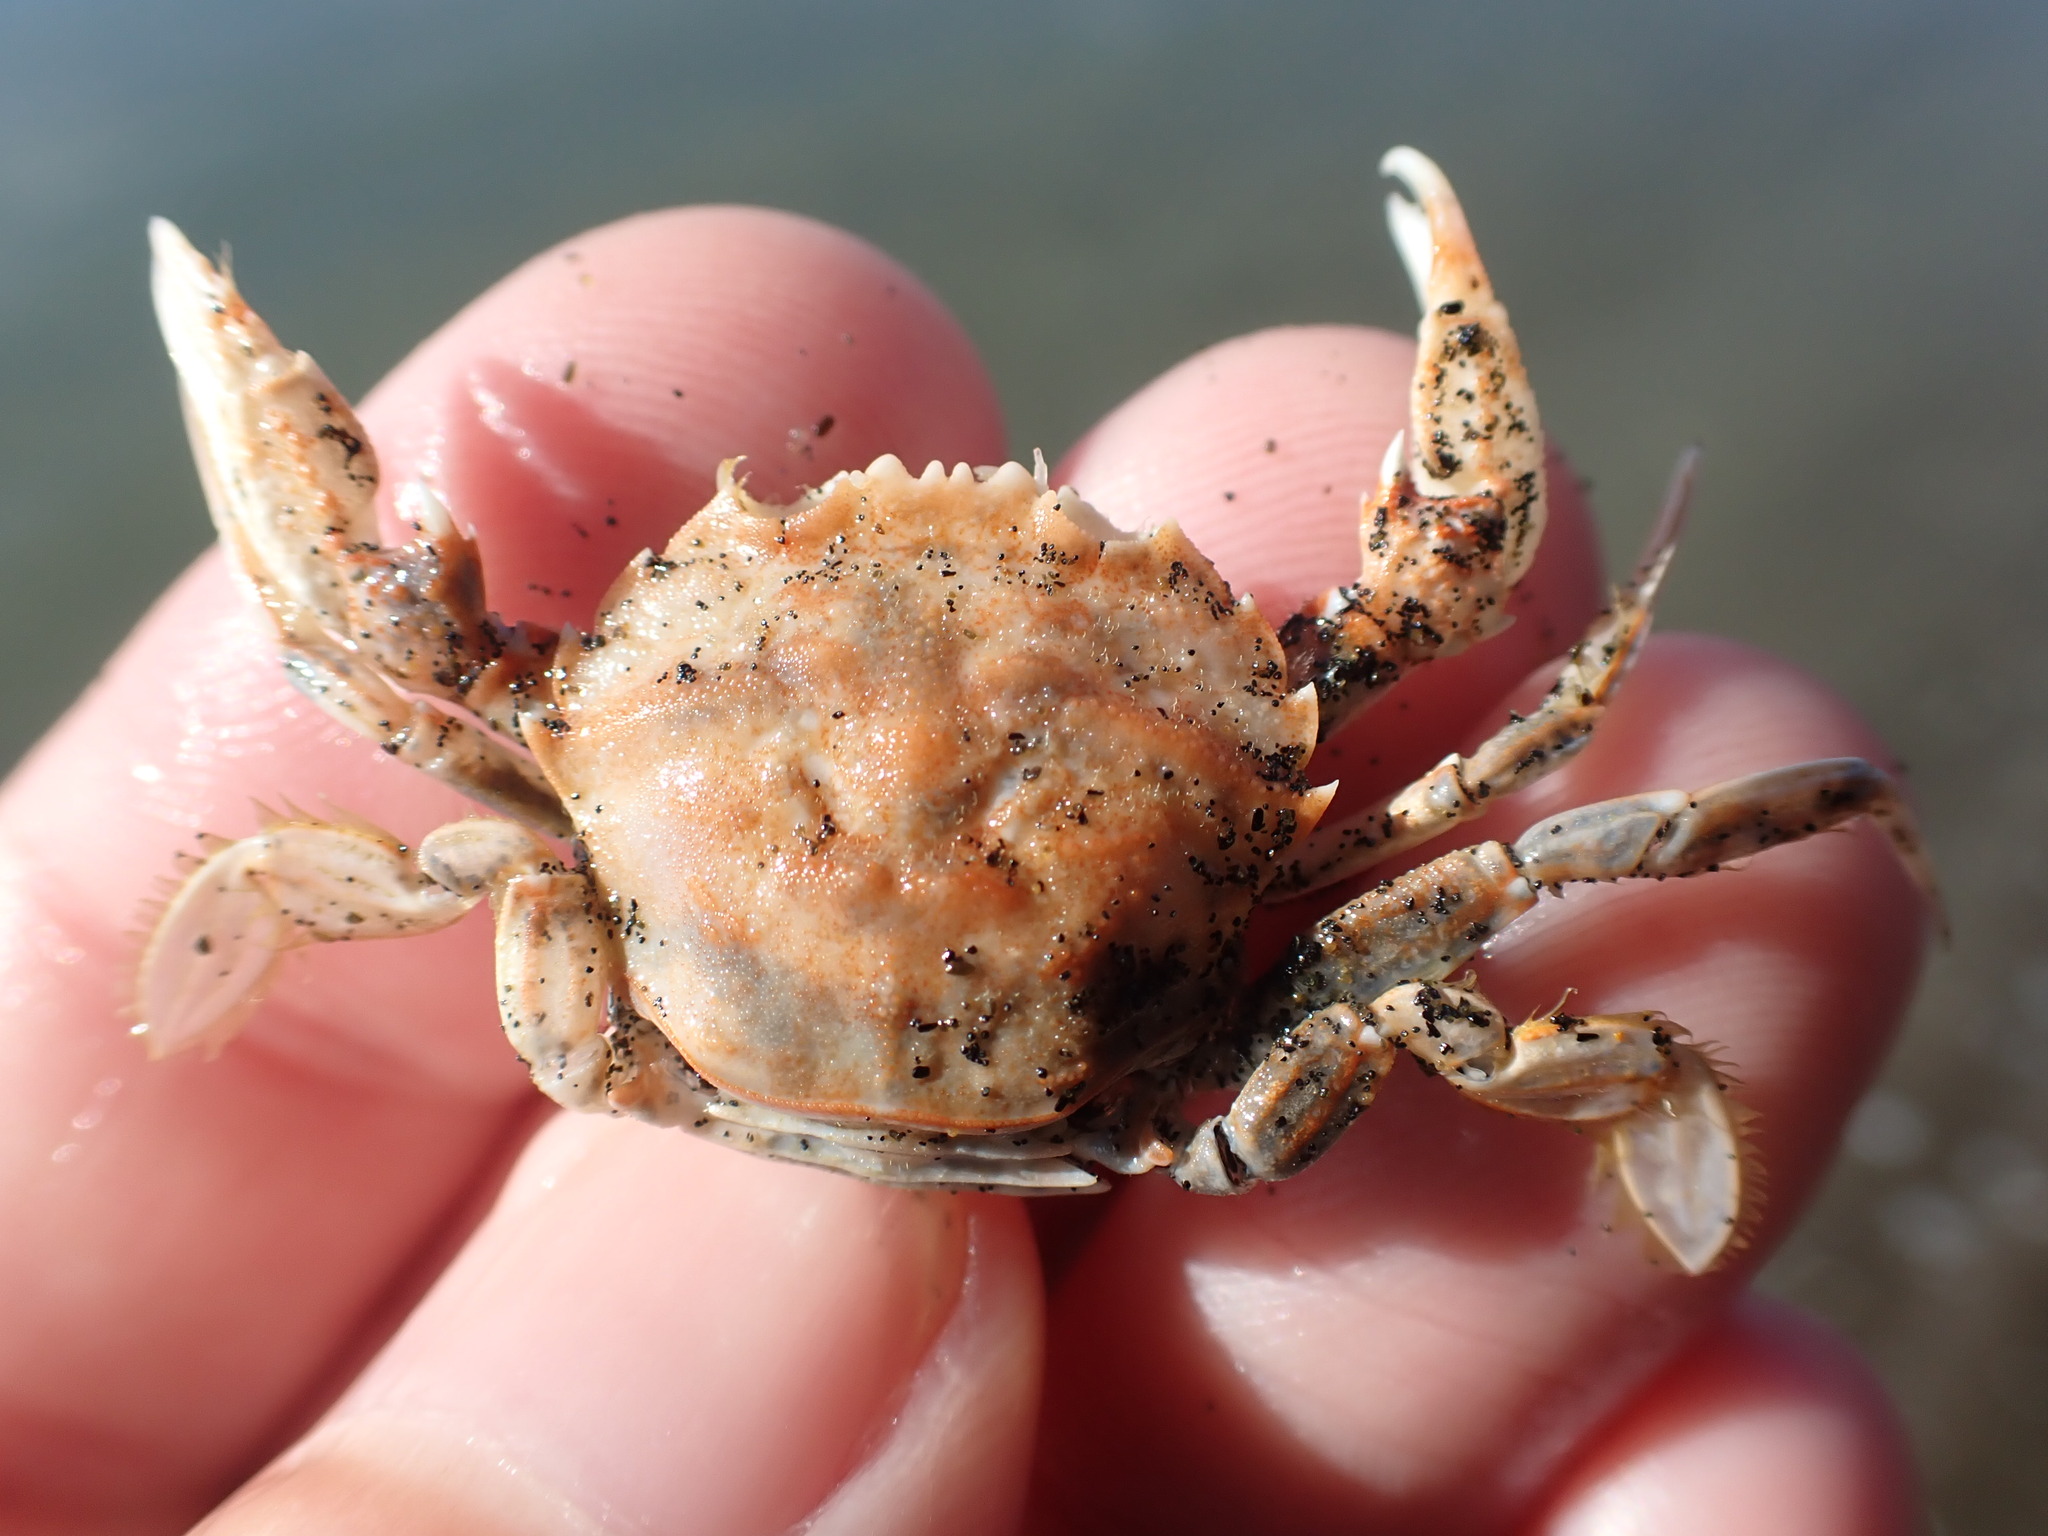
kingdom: Animalia
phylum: Arthropoda
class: Malacostraca
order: Decapoda
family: Geryonidae
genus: Nectocarcinus
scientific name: Nectocarcinus antarcticus
